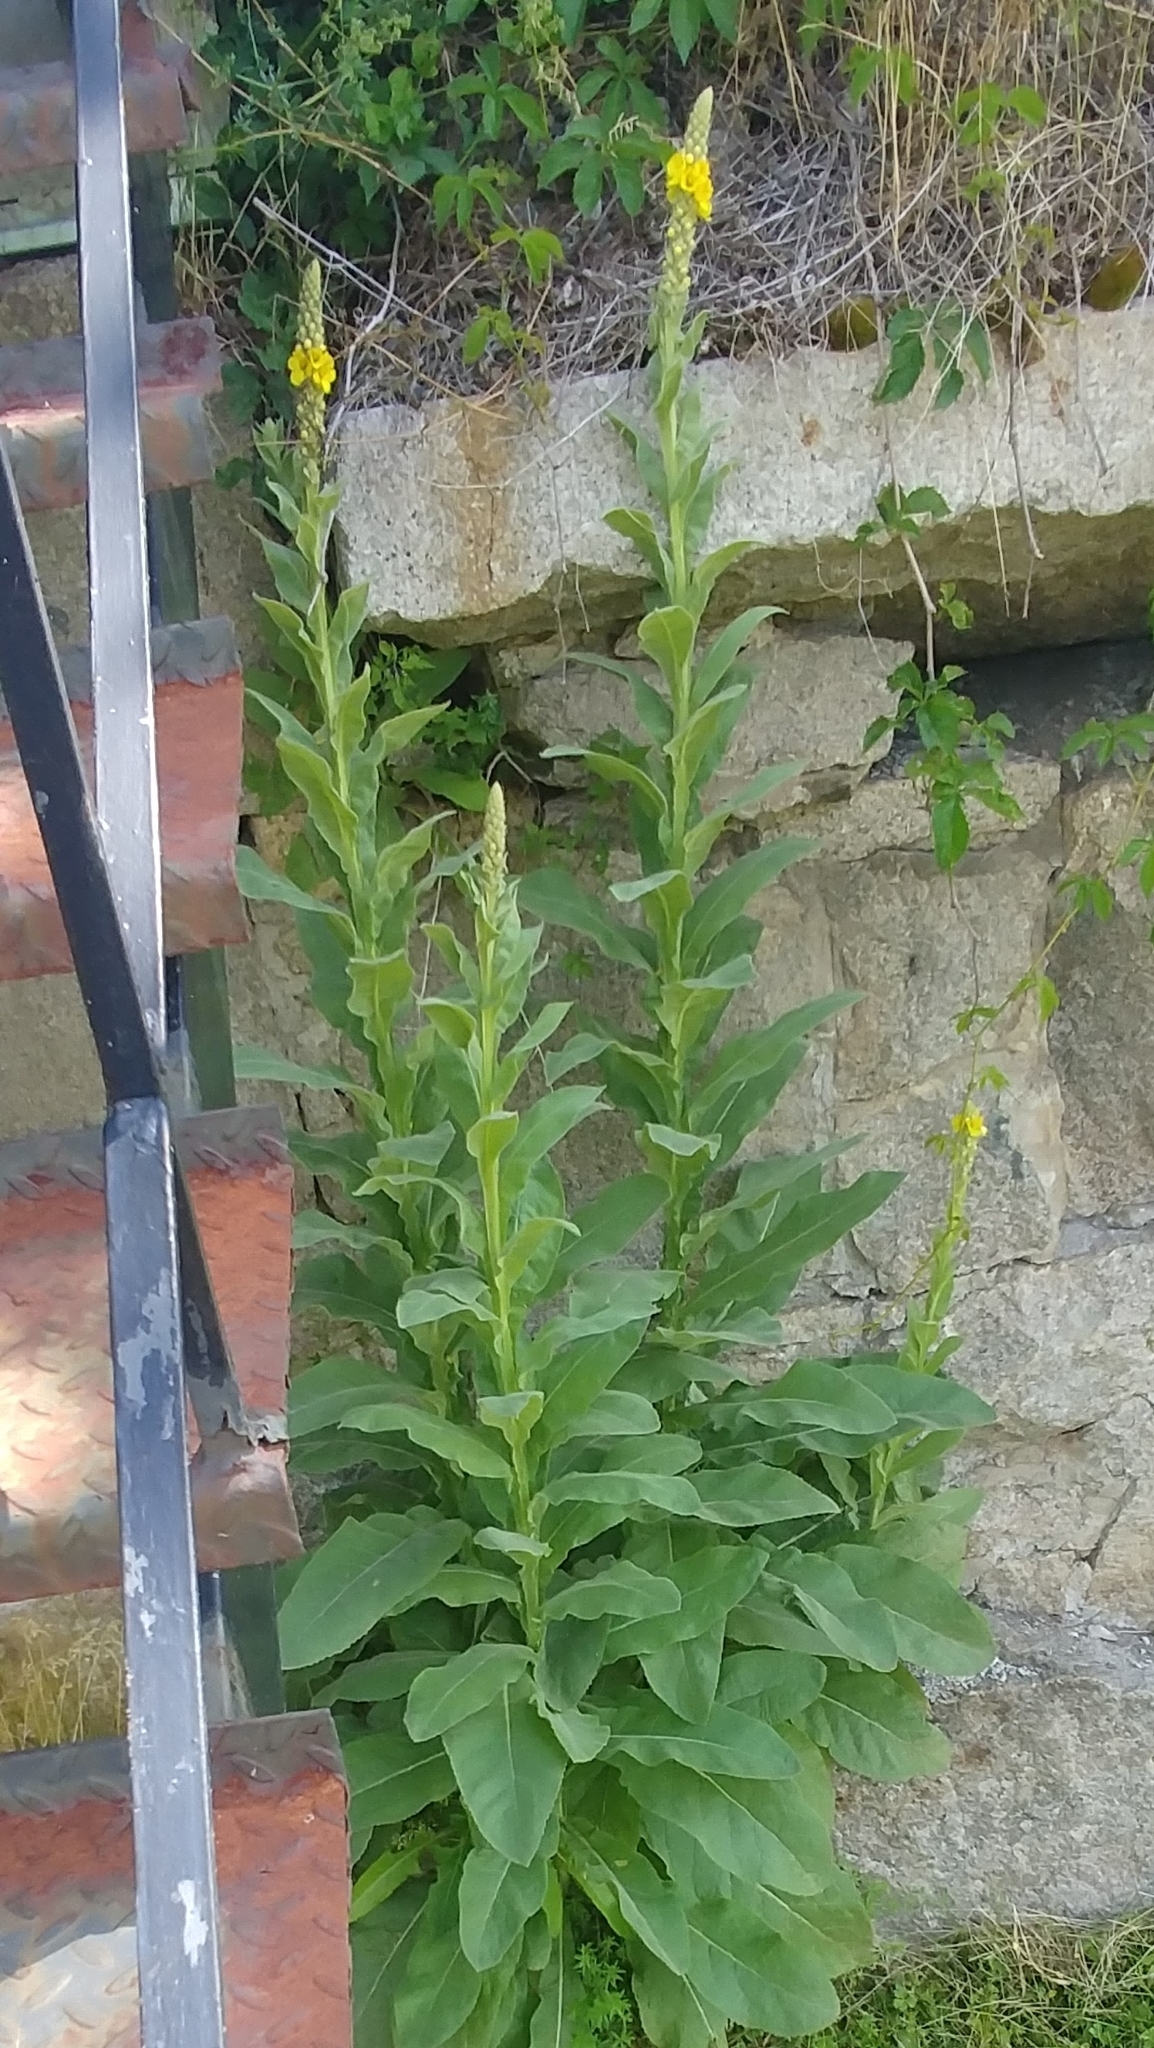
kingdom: Plantae
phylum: Tracheophyta
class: Magnoliopsida
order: Lamiales
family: Scrophulariaceae
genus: Verbascum
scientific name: Verbascum thapsus
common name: Common mullein
